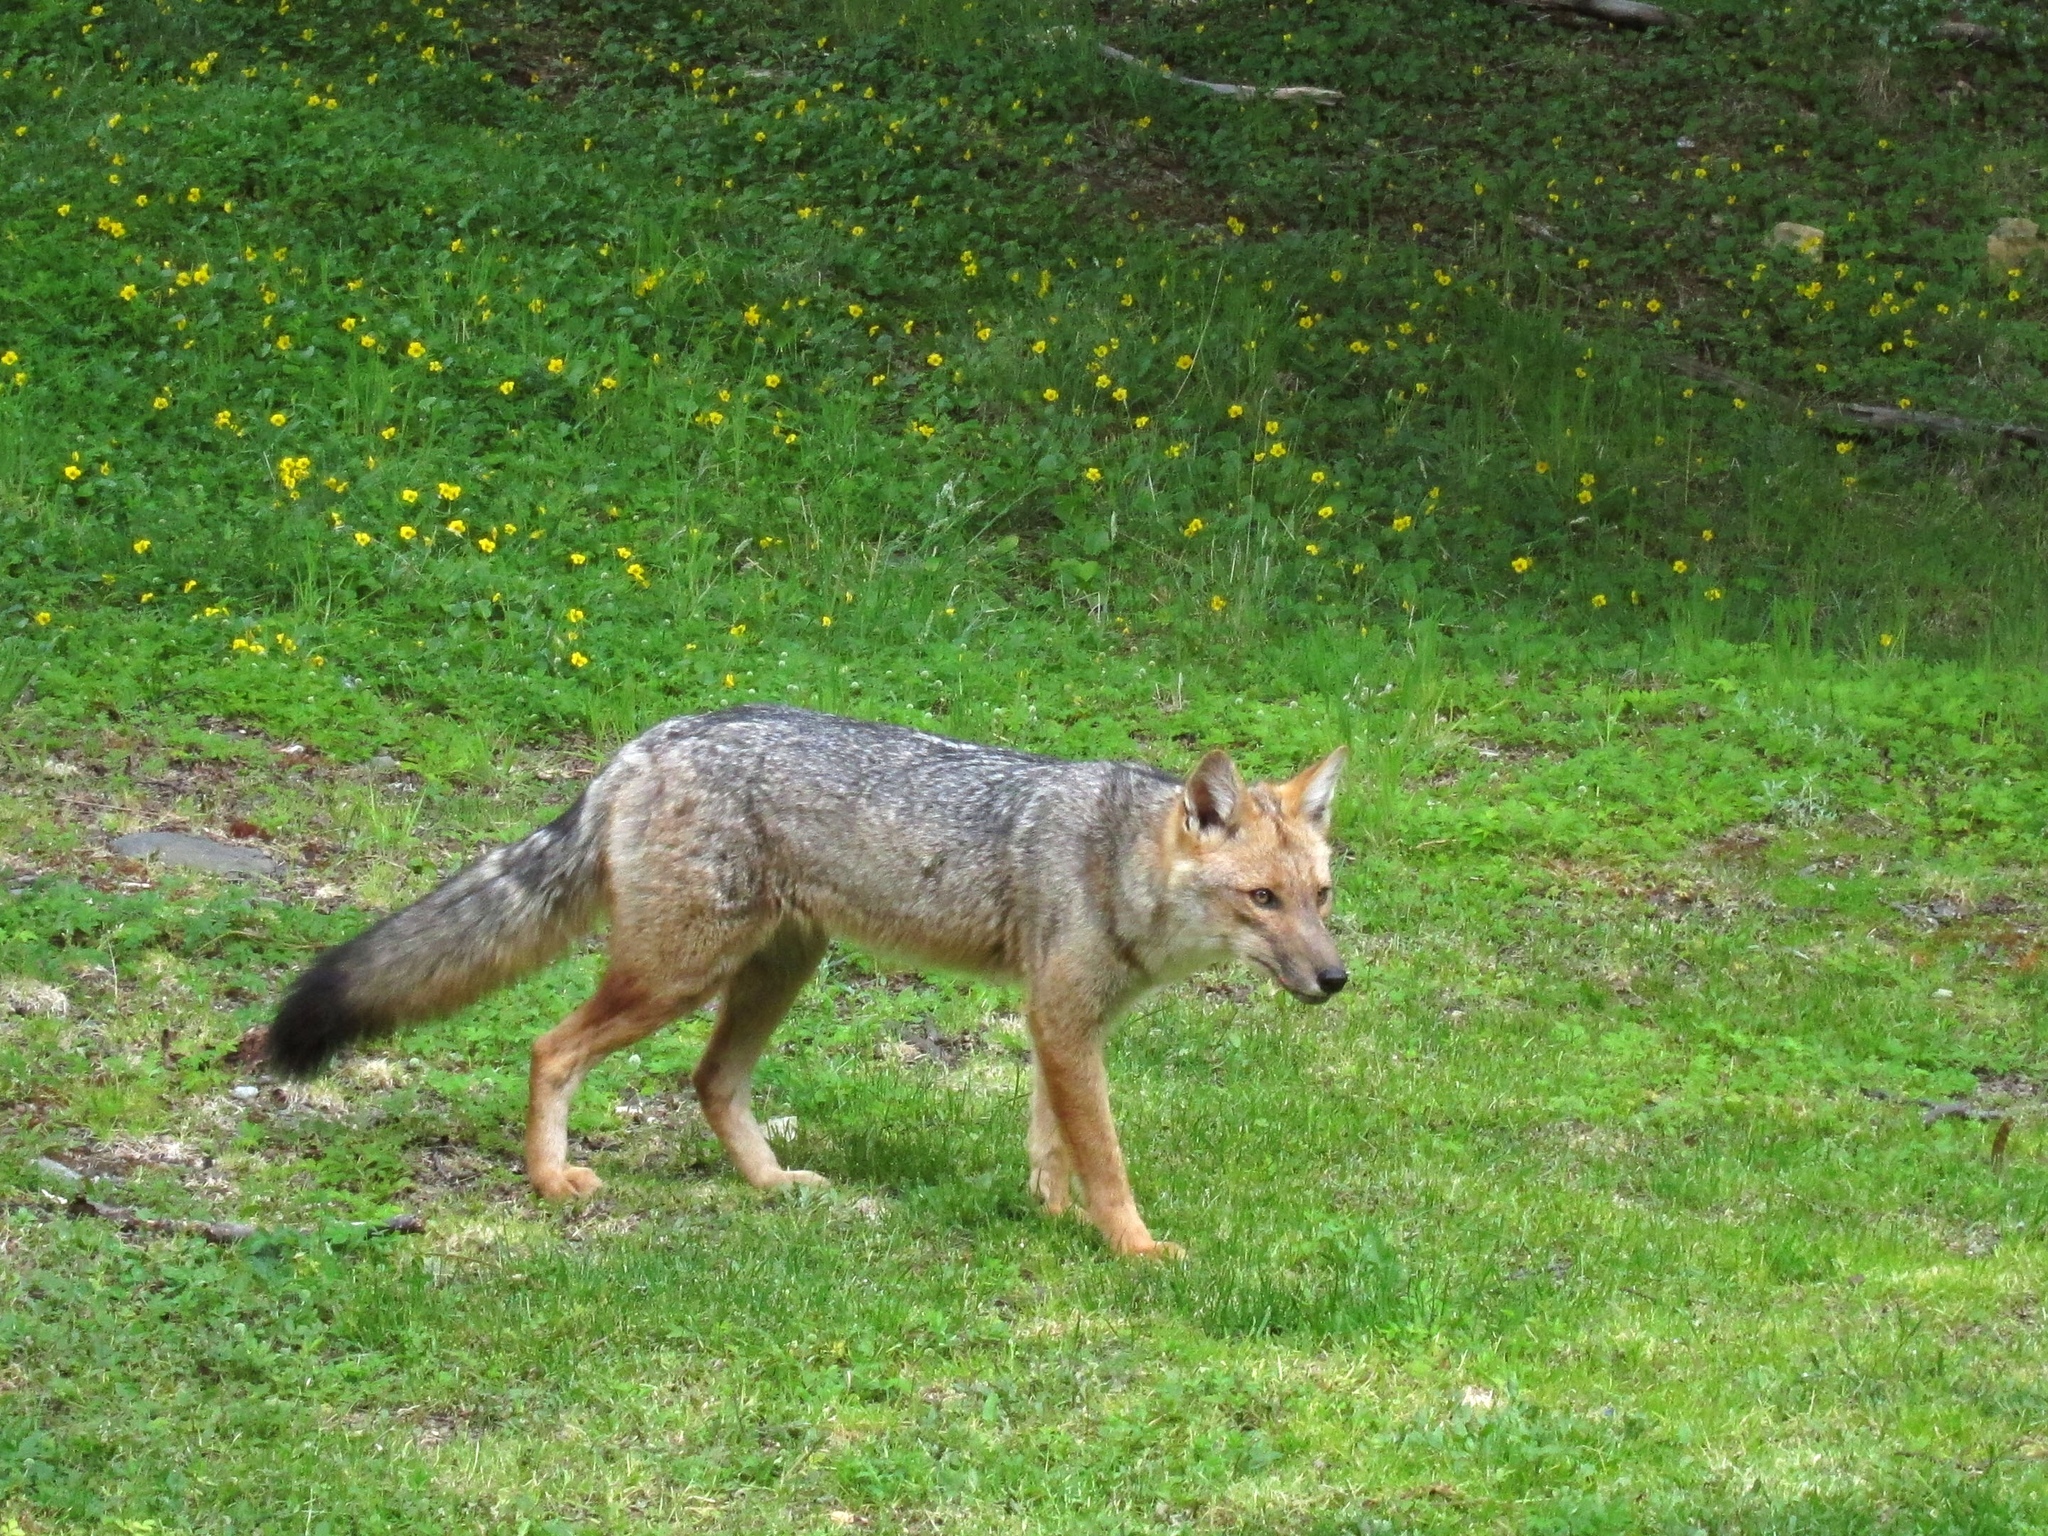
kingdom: Animalia
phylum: Chordata
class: Mammalia
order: Carnivora
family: Canidae
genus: Lycalopex
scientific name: Lycalopex culpaeus
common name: Culpeo
